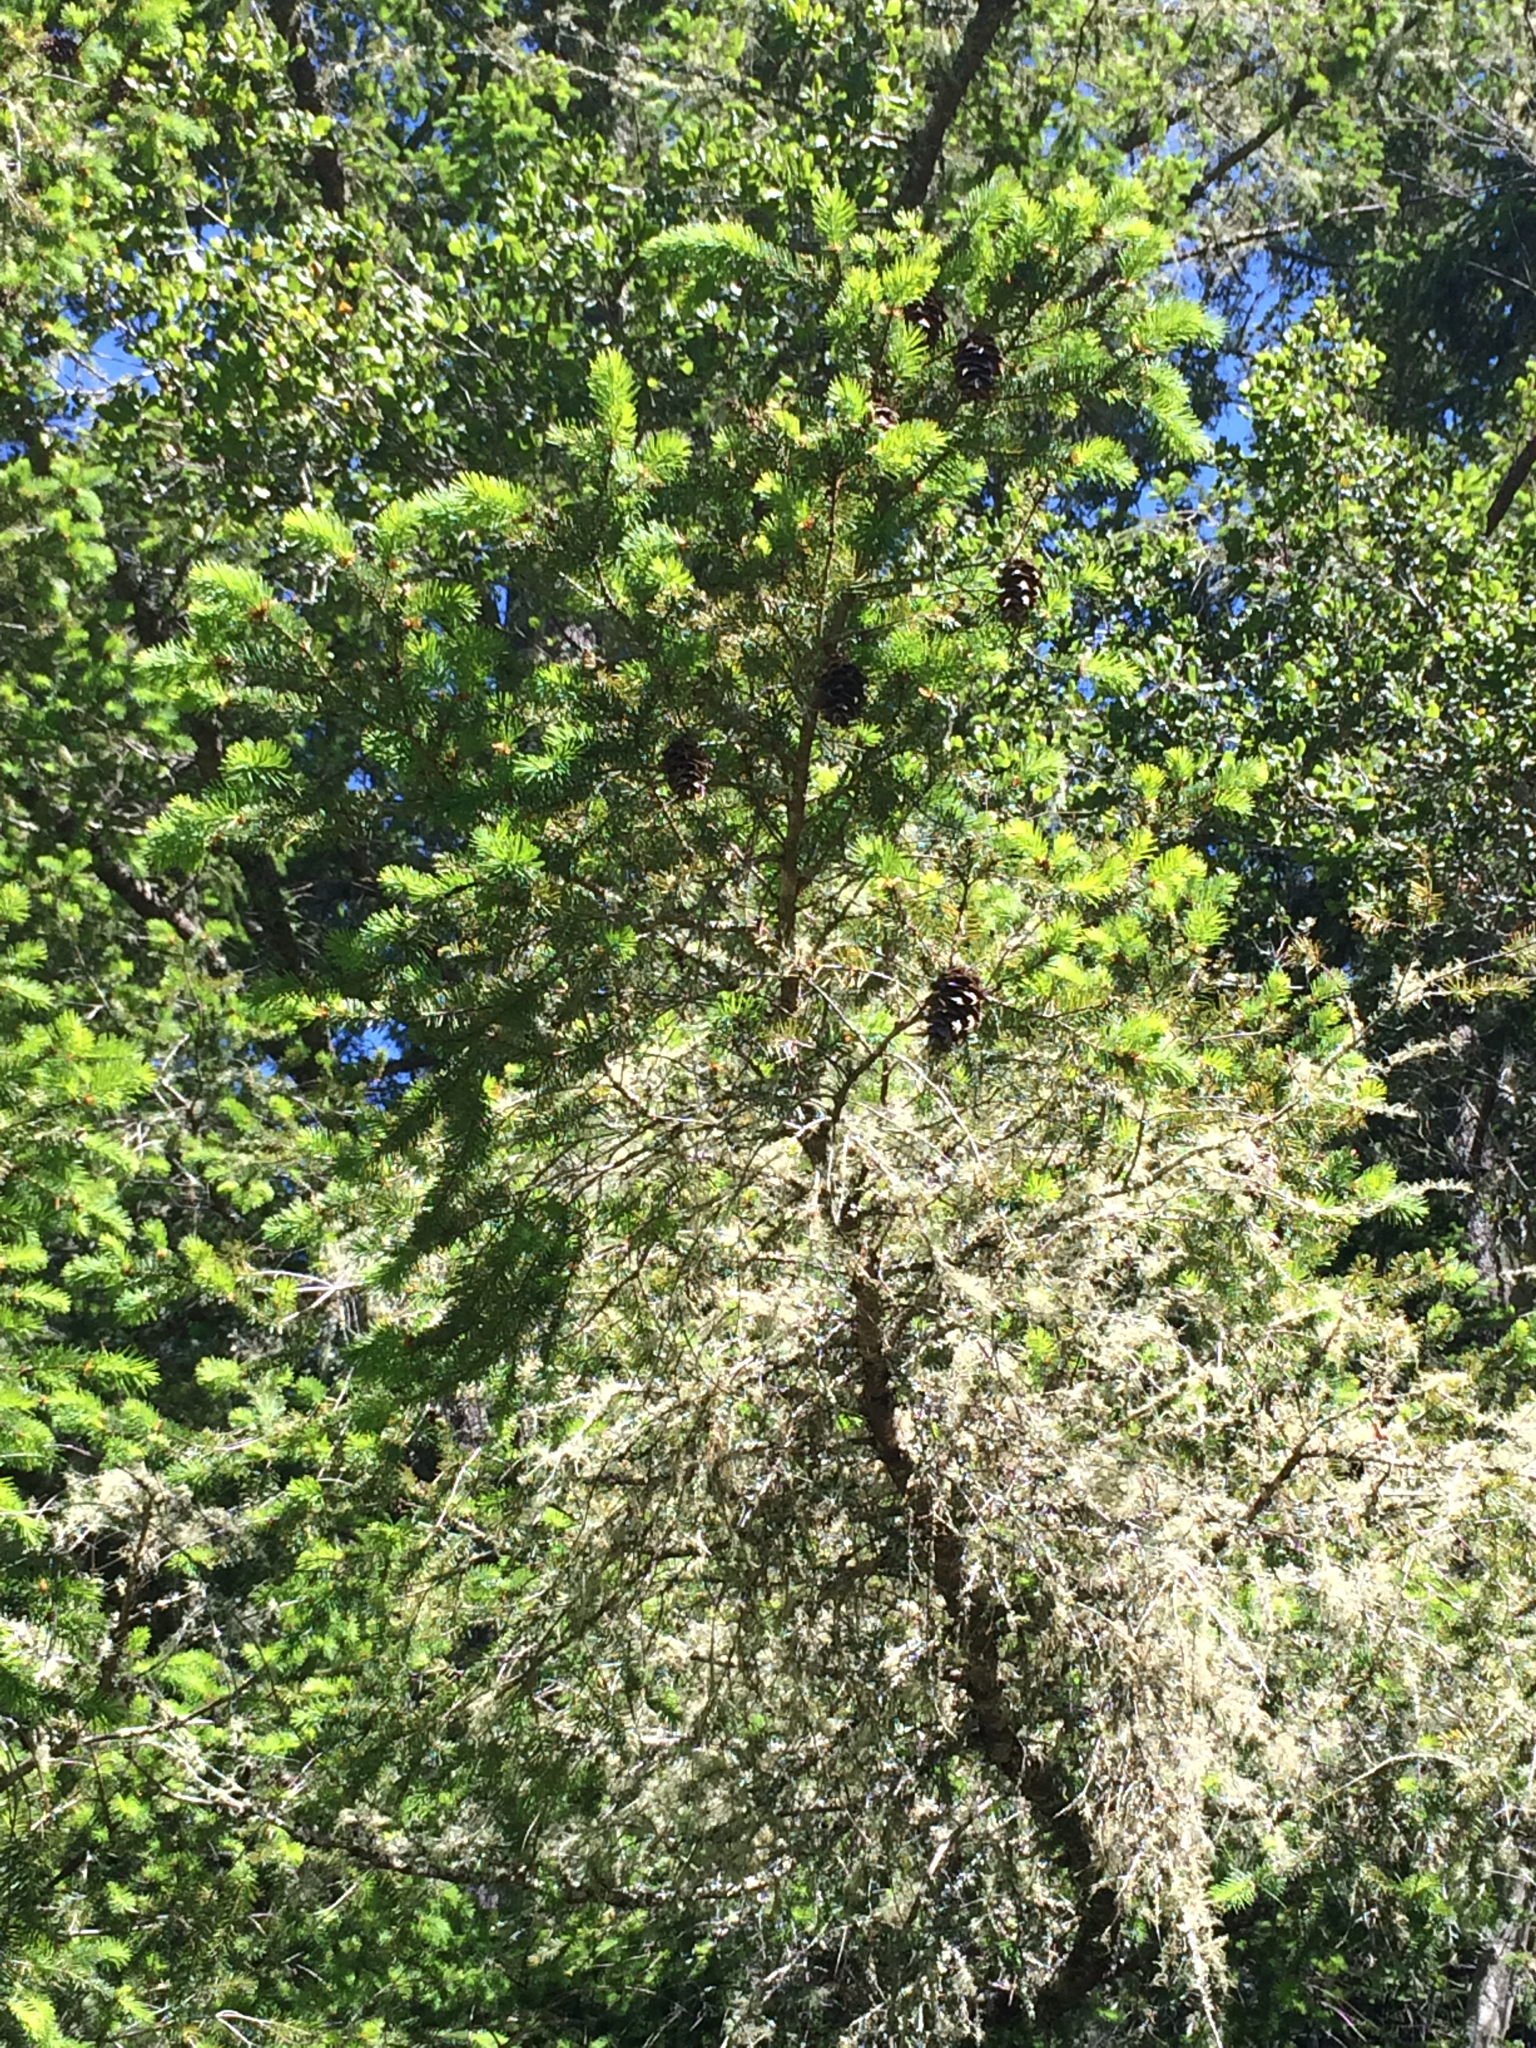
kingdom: Plantae
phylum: Tracheophyta
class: Pinopsida
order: Pinales
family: Pinaceae
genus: Pseudotsuga
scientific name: Pseudotsuga menziesii
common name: Douglas fir
